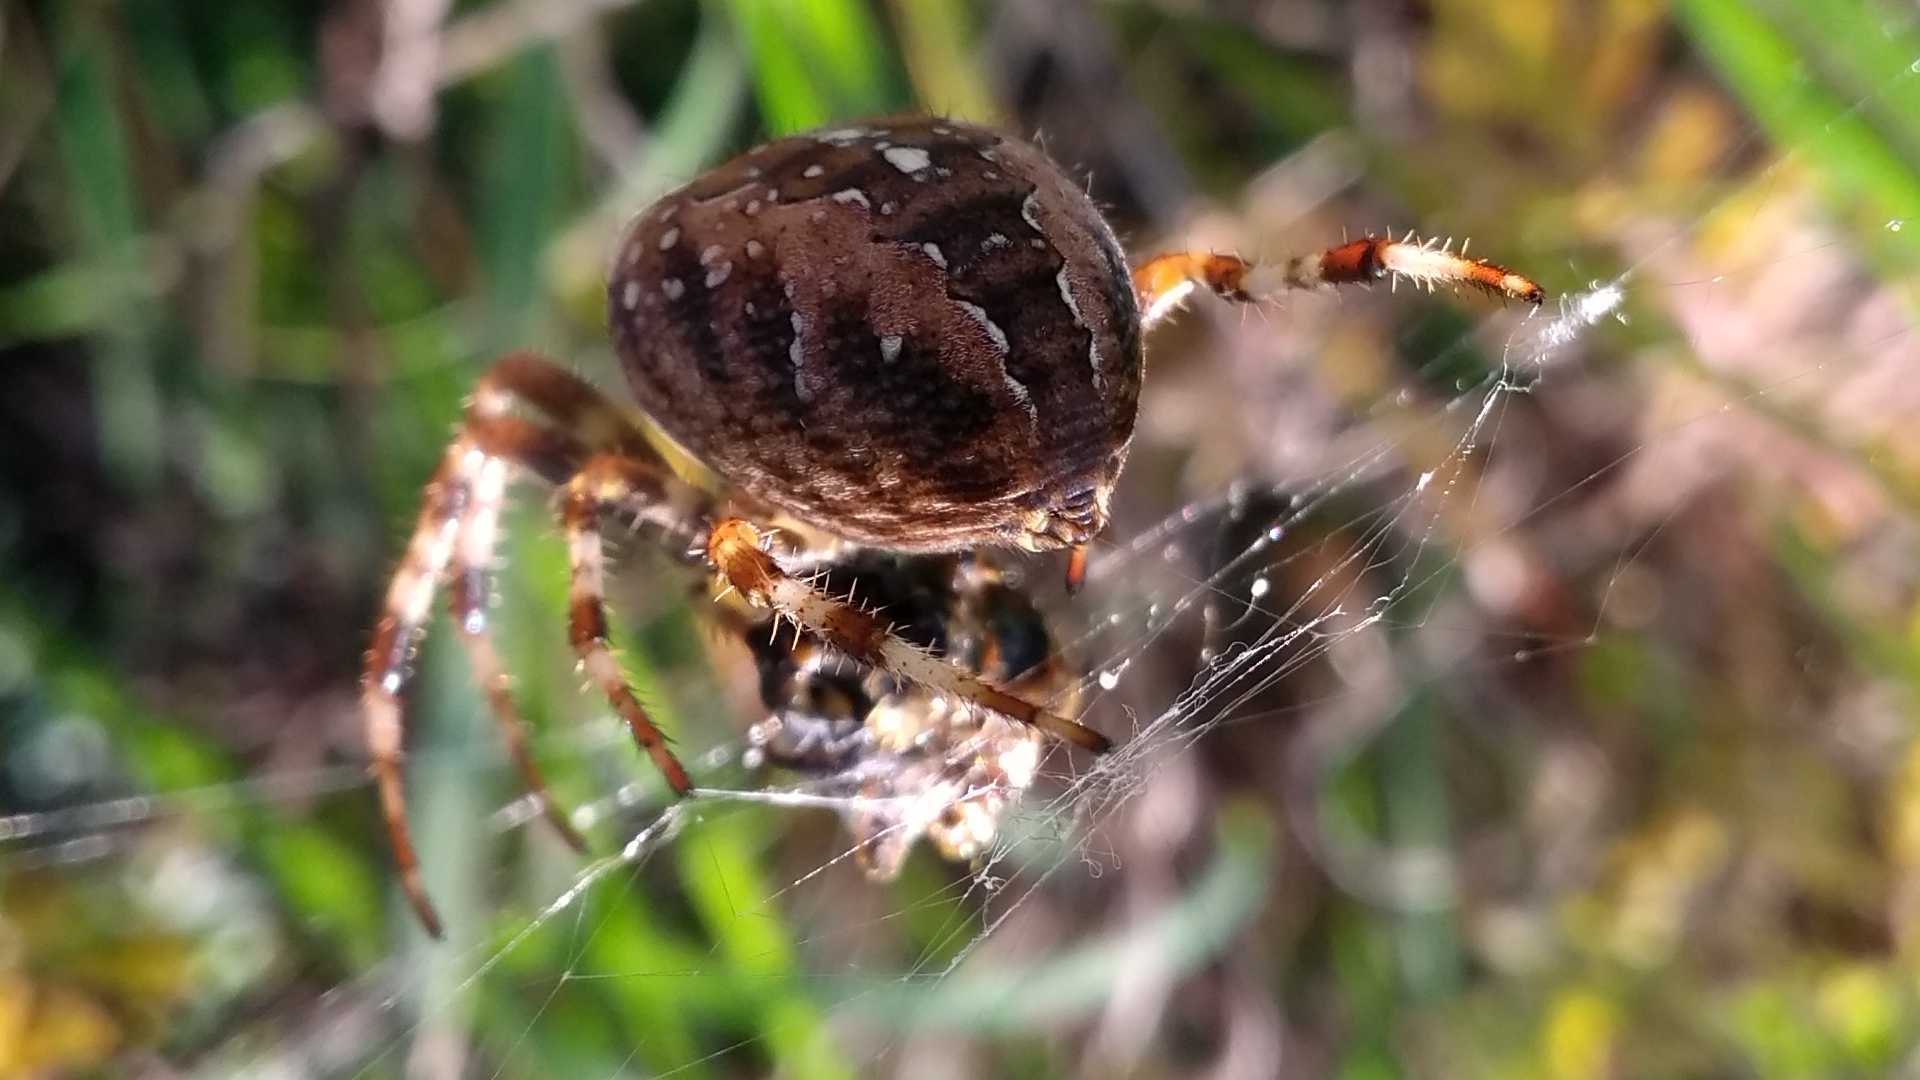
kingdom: Animalia
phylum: Arthropoda
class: Arachnida
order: Araneae
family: Araneidae
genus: Araneus
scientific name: Araneus diadematus
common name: Cross orbweaver
